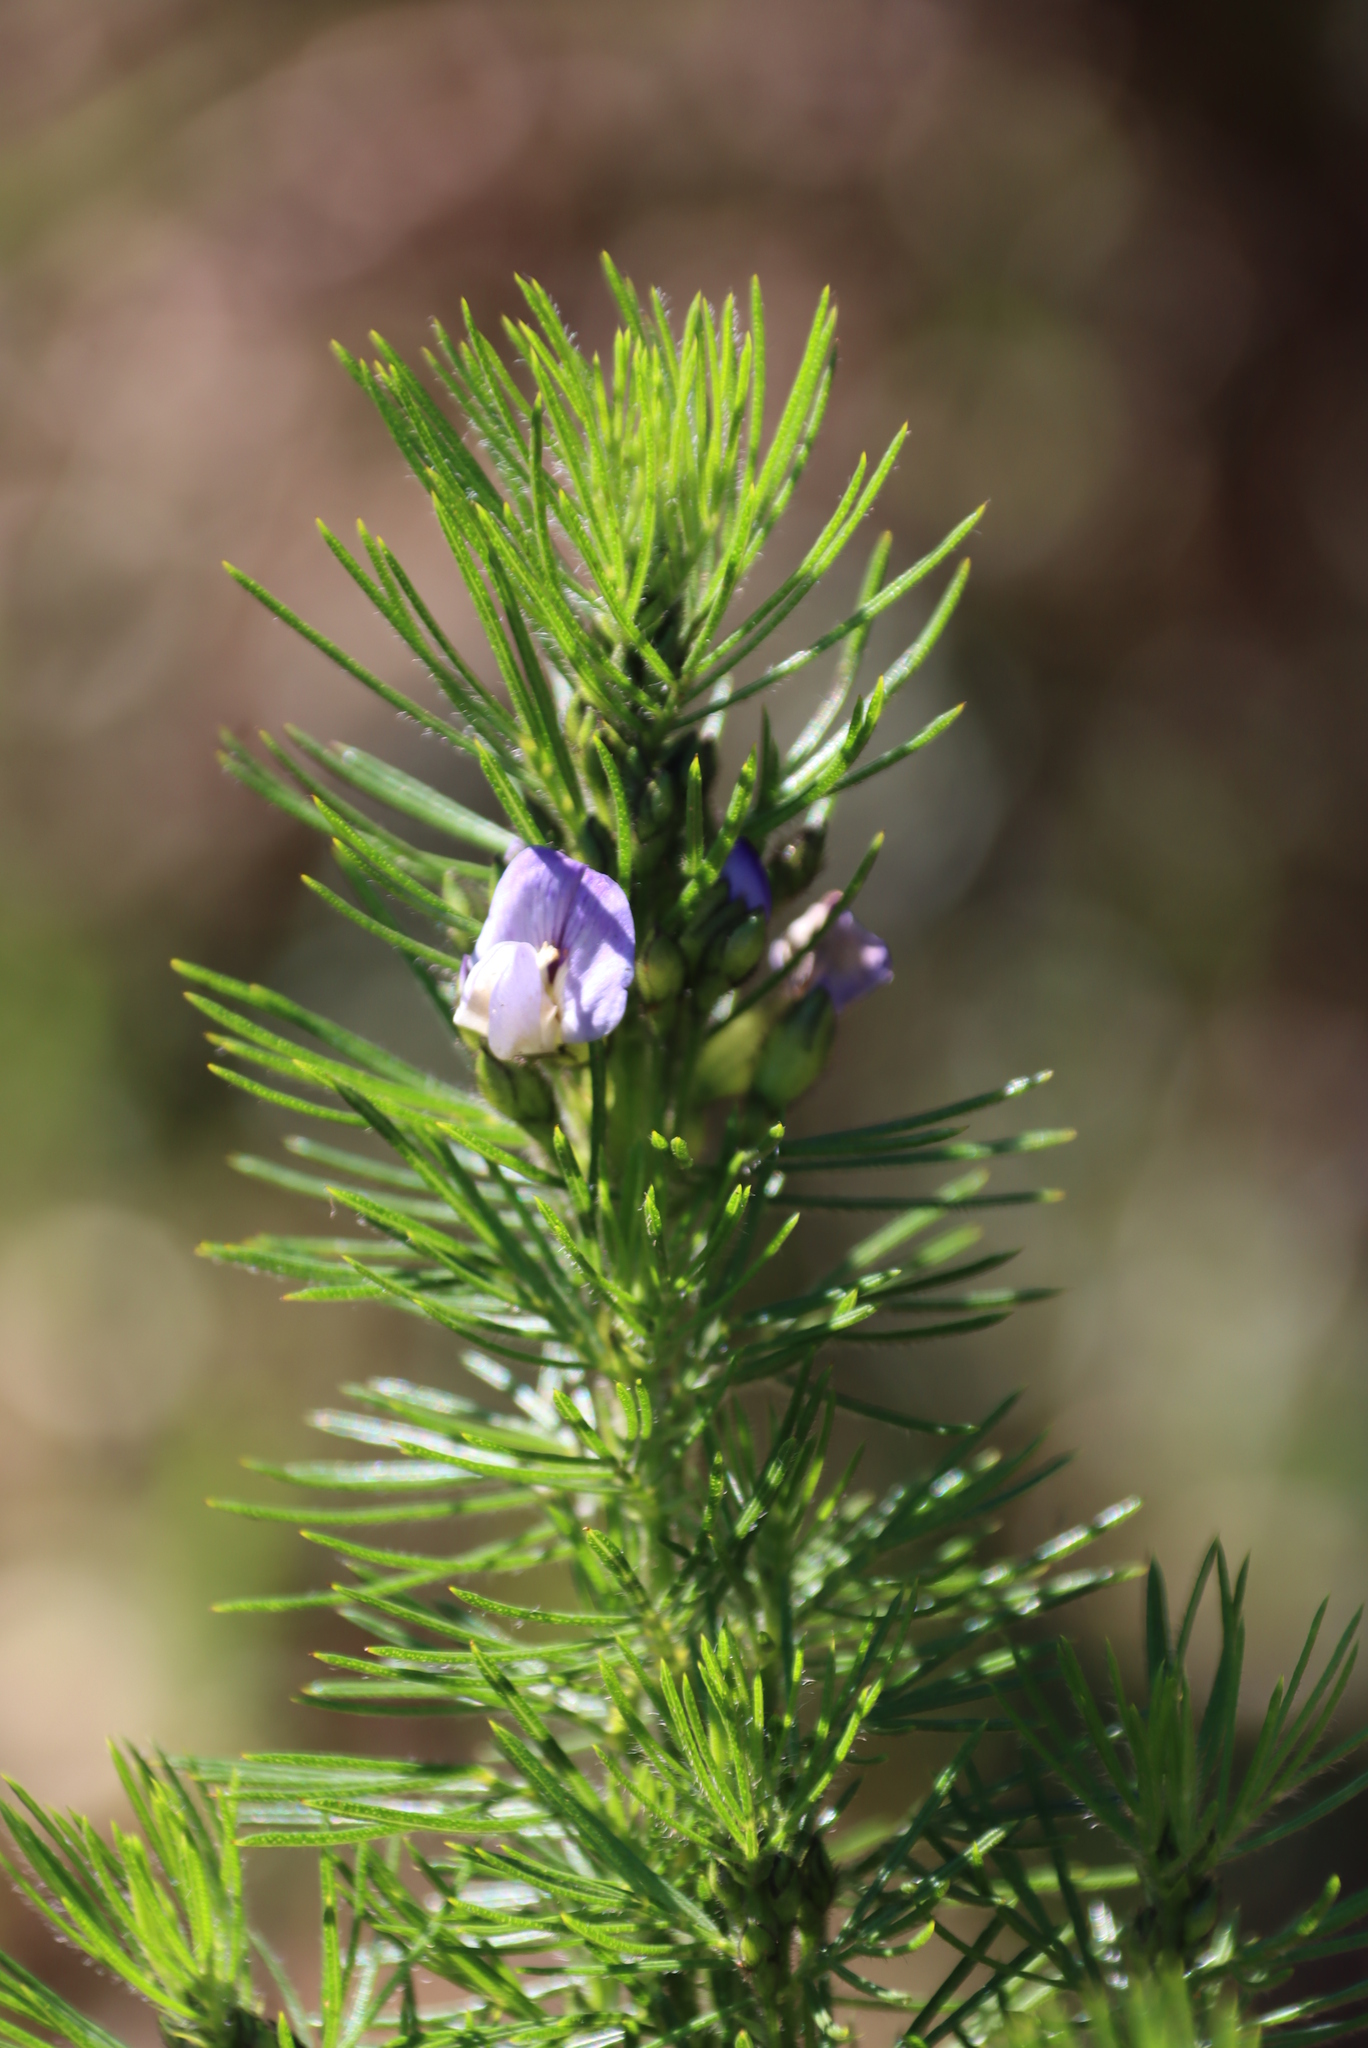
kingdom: Plantae
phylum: Tracheophyta
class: Magnoliopsida
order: Fabales
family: Fabaceae
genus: Psoralea
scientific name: Psoralea pinnata
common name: African scurfpea
